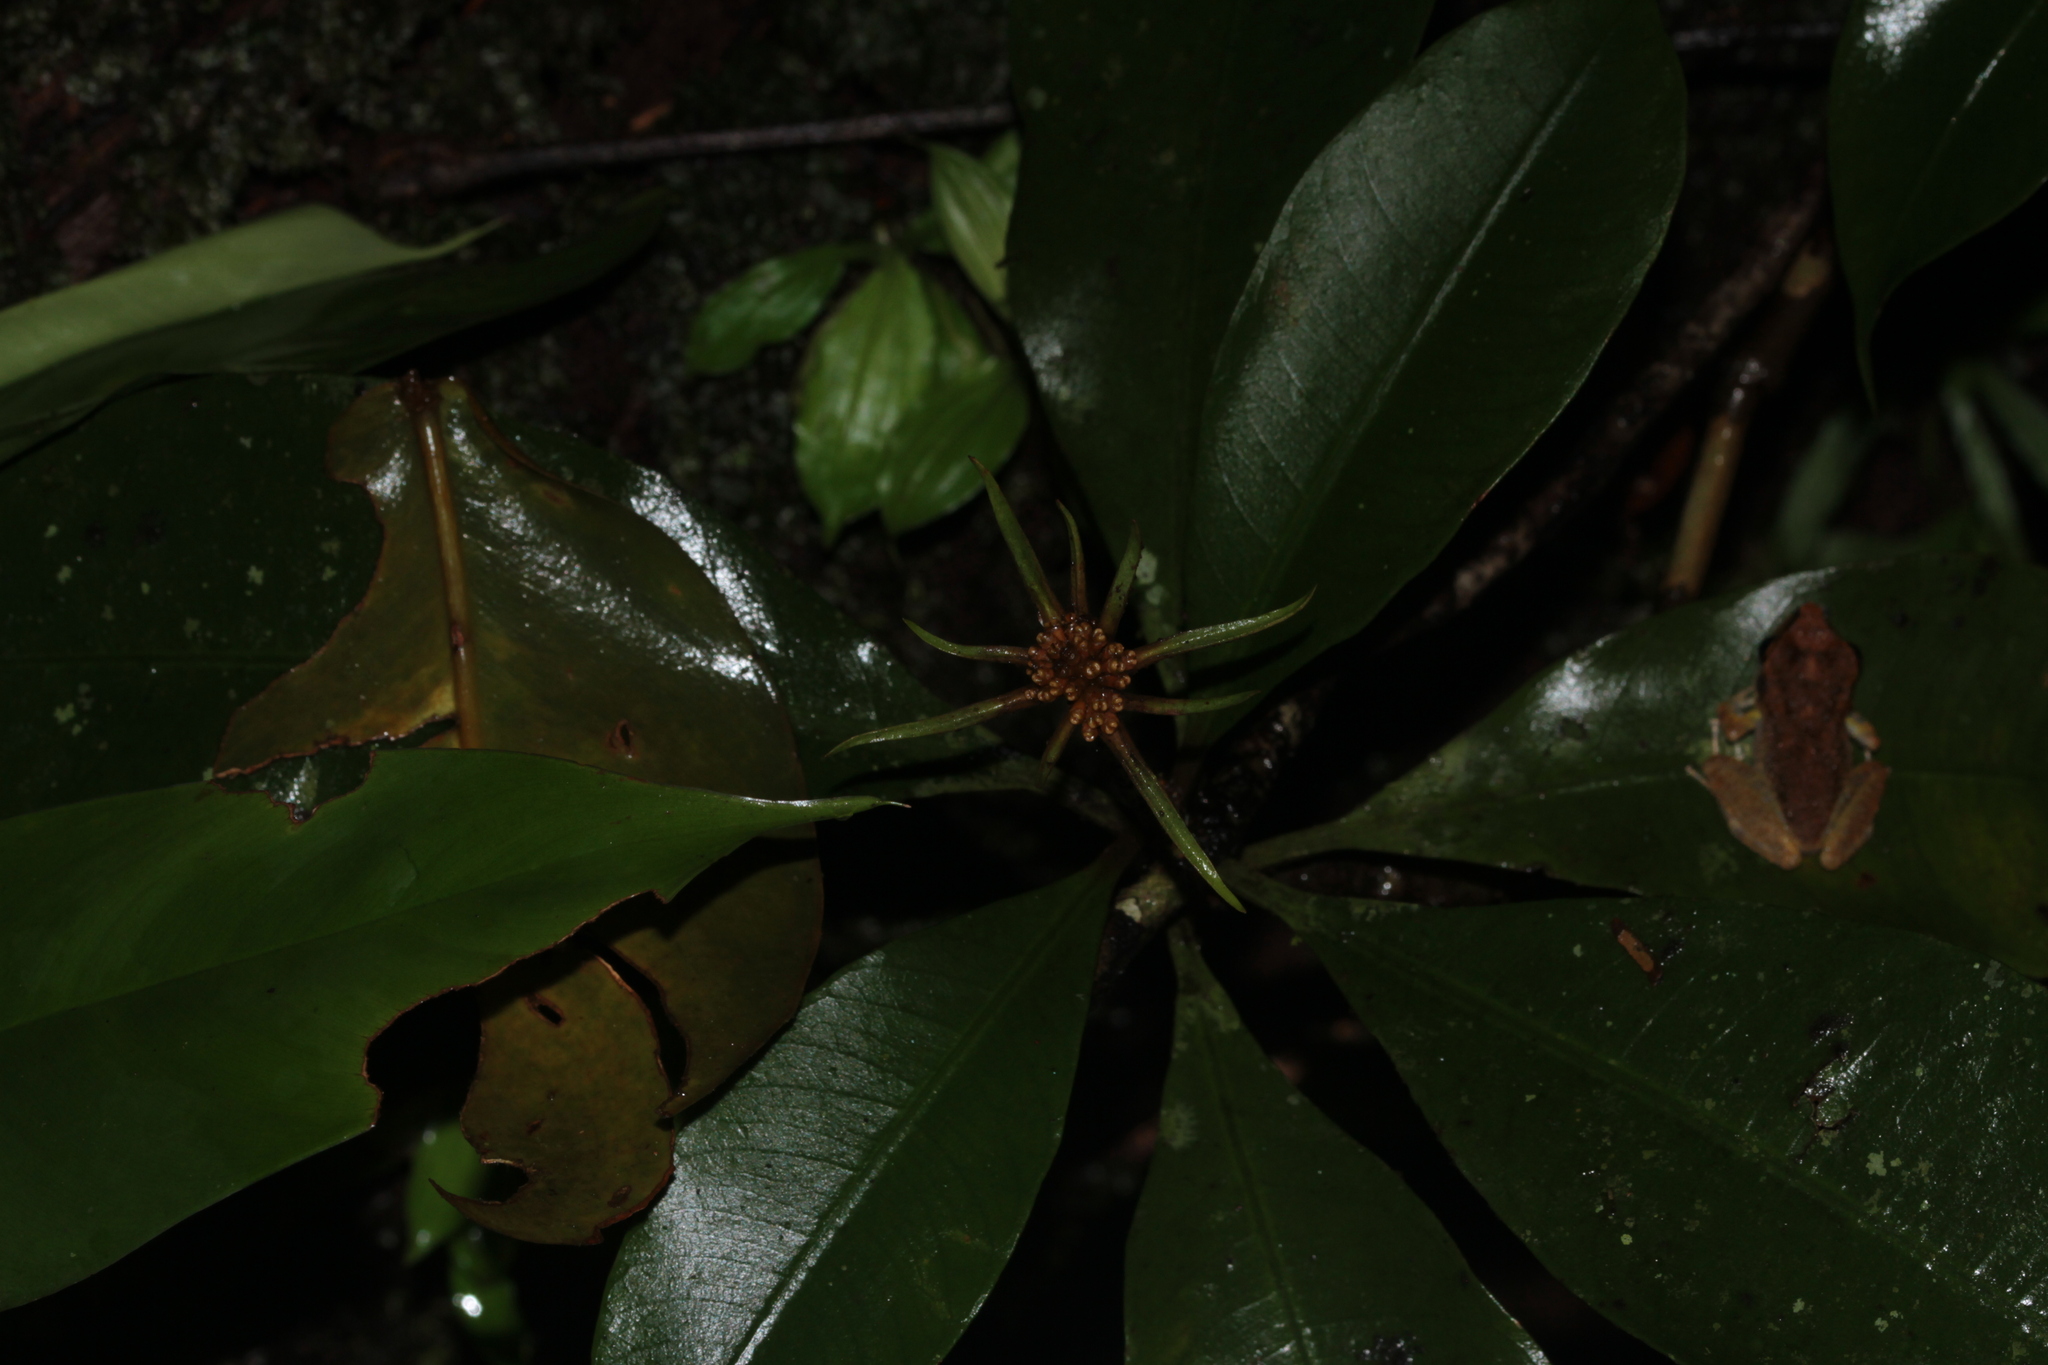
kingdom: Plantae
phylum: Tracheophyta
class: Magnoliopsida
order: Gentianales
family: Rubiaceae
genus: Carapichea
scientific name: Carapichea ligularis
